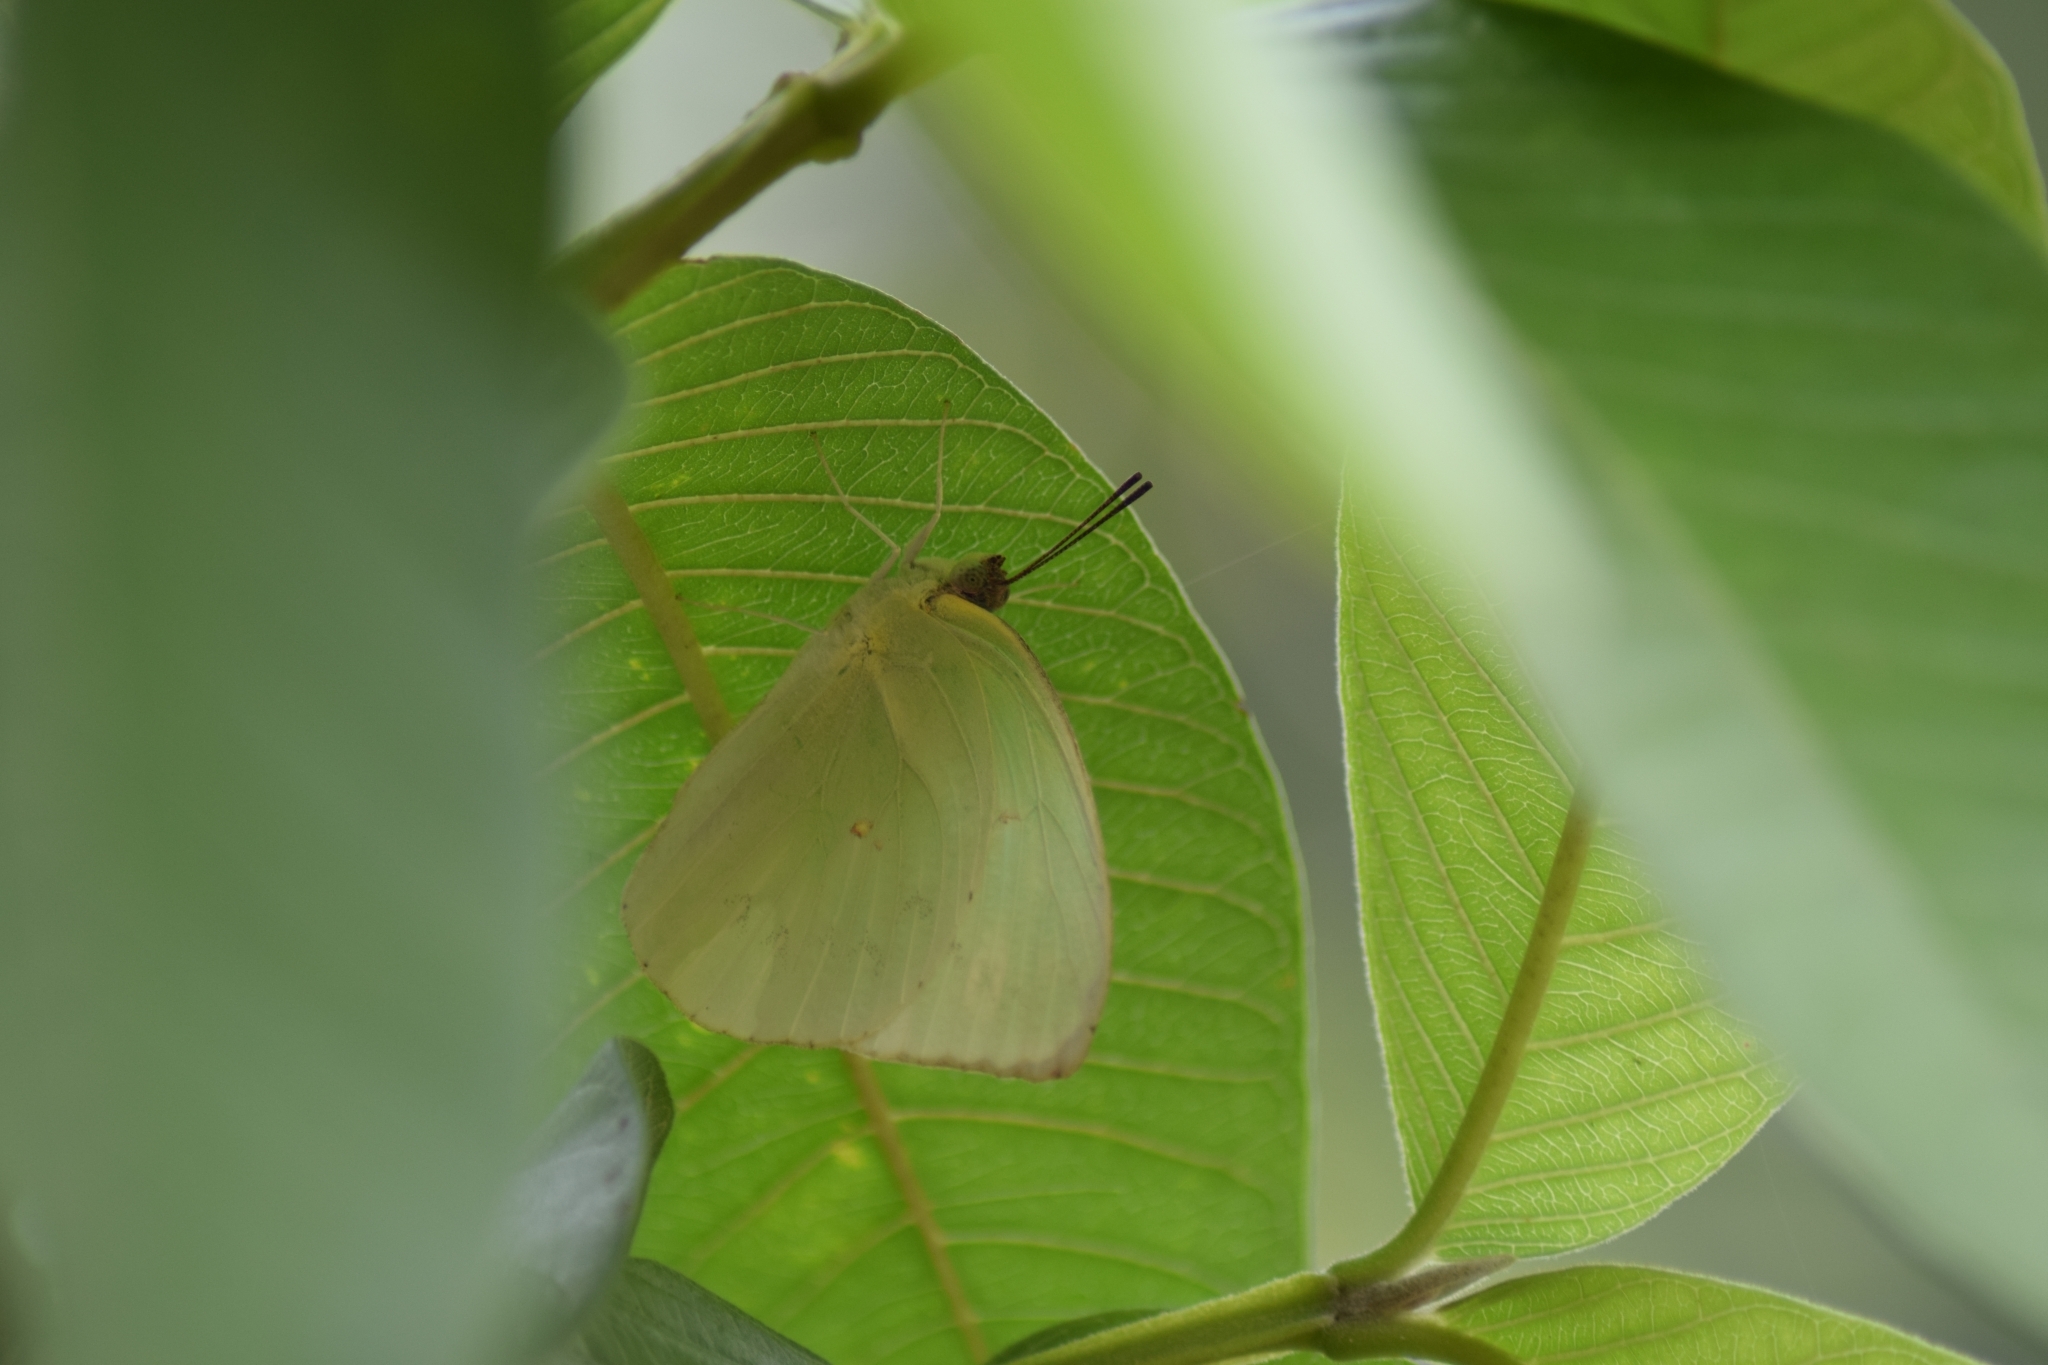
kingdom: Animalia
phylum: Arthropoda
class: Insecta
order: Lepidoptera
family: Pieridae
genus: Catopsilia
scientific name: Catopsilia pomona
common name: Common emigrant
